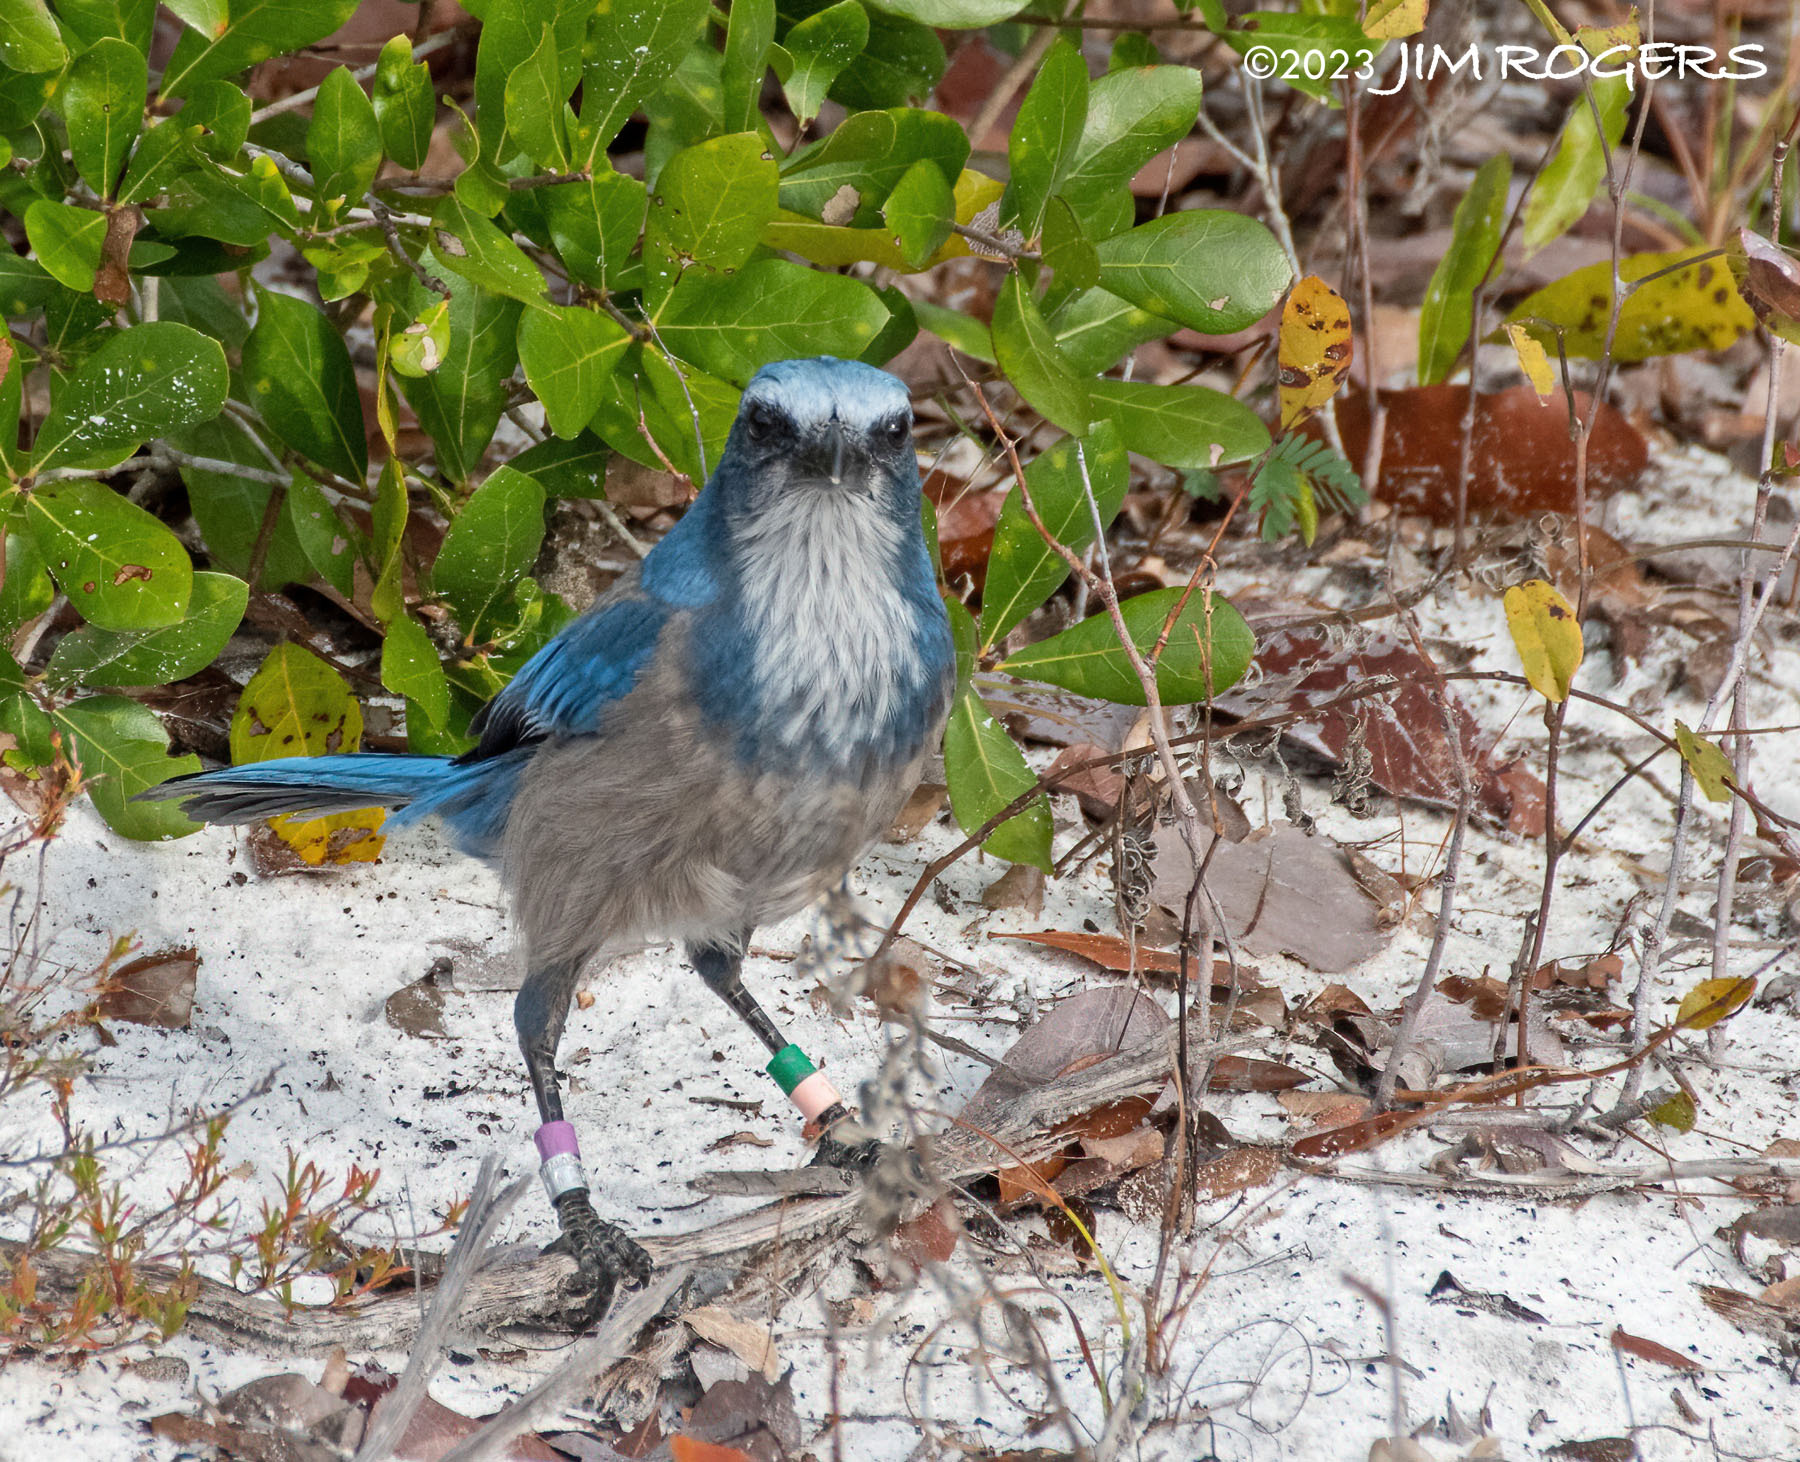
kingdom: Animalia
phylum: Chordata
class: Aves
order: Passeriformes
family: Corvidae
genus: Aphelocoma
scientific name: Aphelocoma coerulescens
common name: Florida scrub jay
